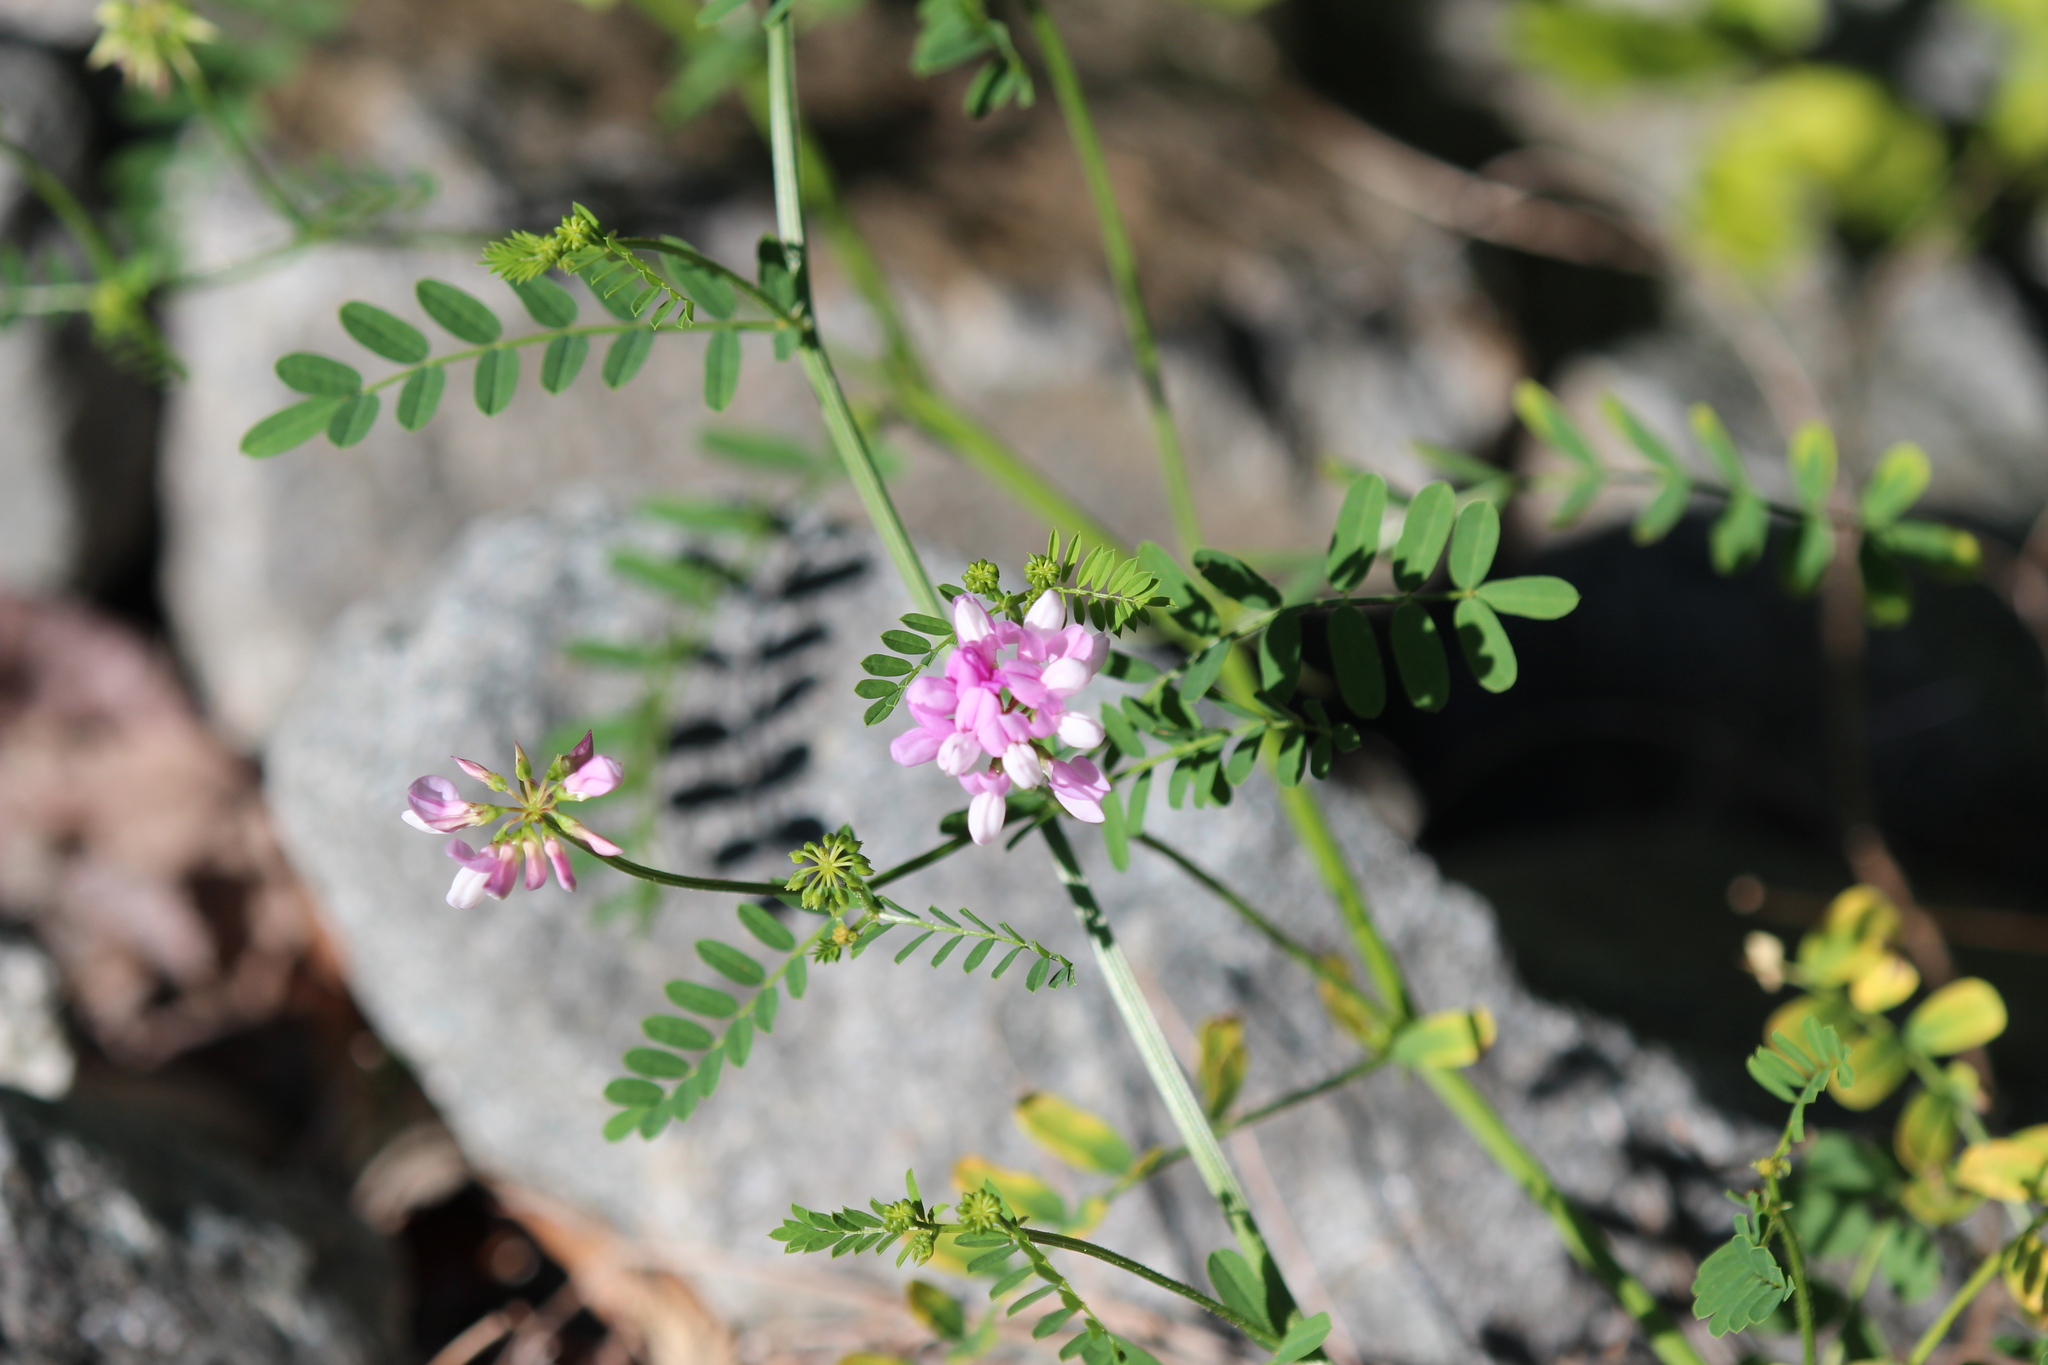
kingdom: Plantae
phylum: Tracheophyta
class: Magnoliopsida
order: Fabales
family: Fabaceae
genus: Coronilla
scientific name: Coronilla varia
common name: Crownvetch
